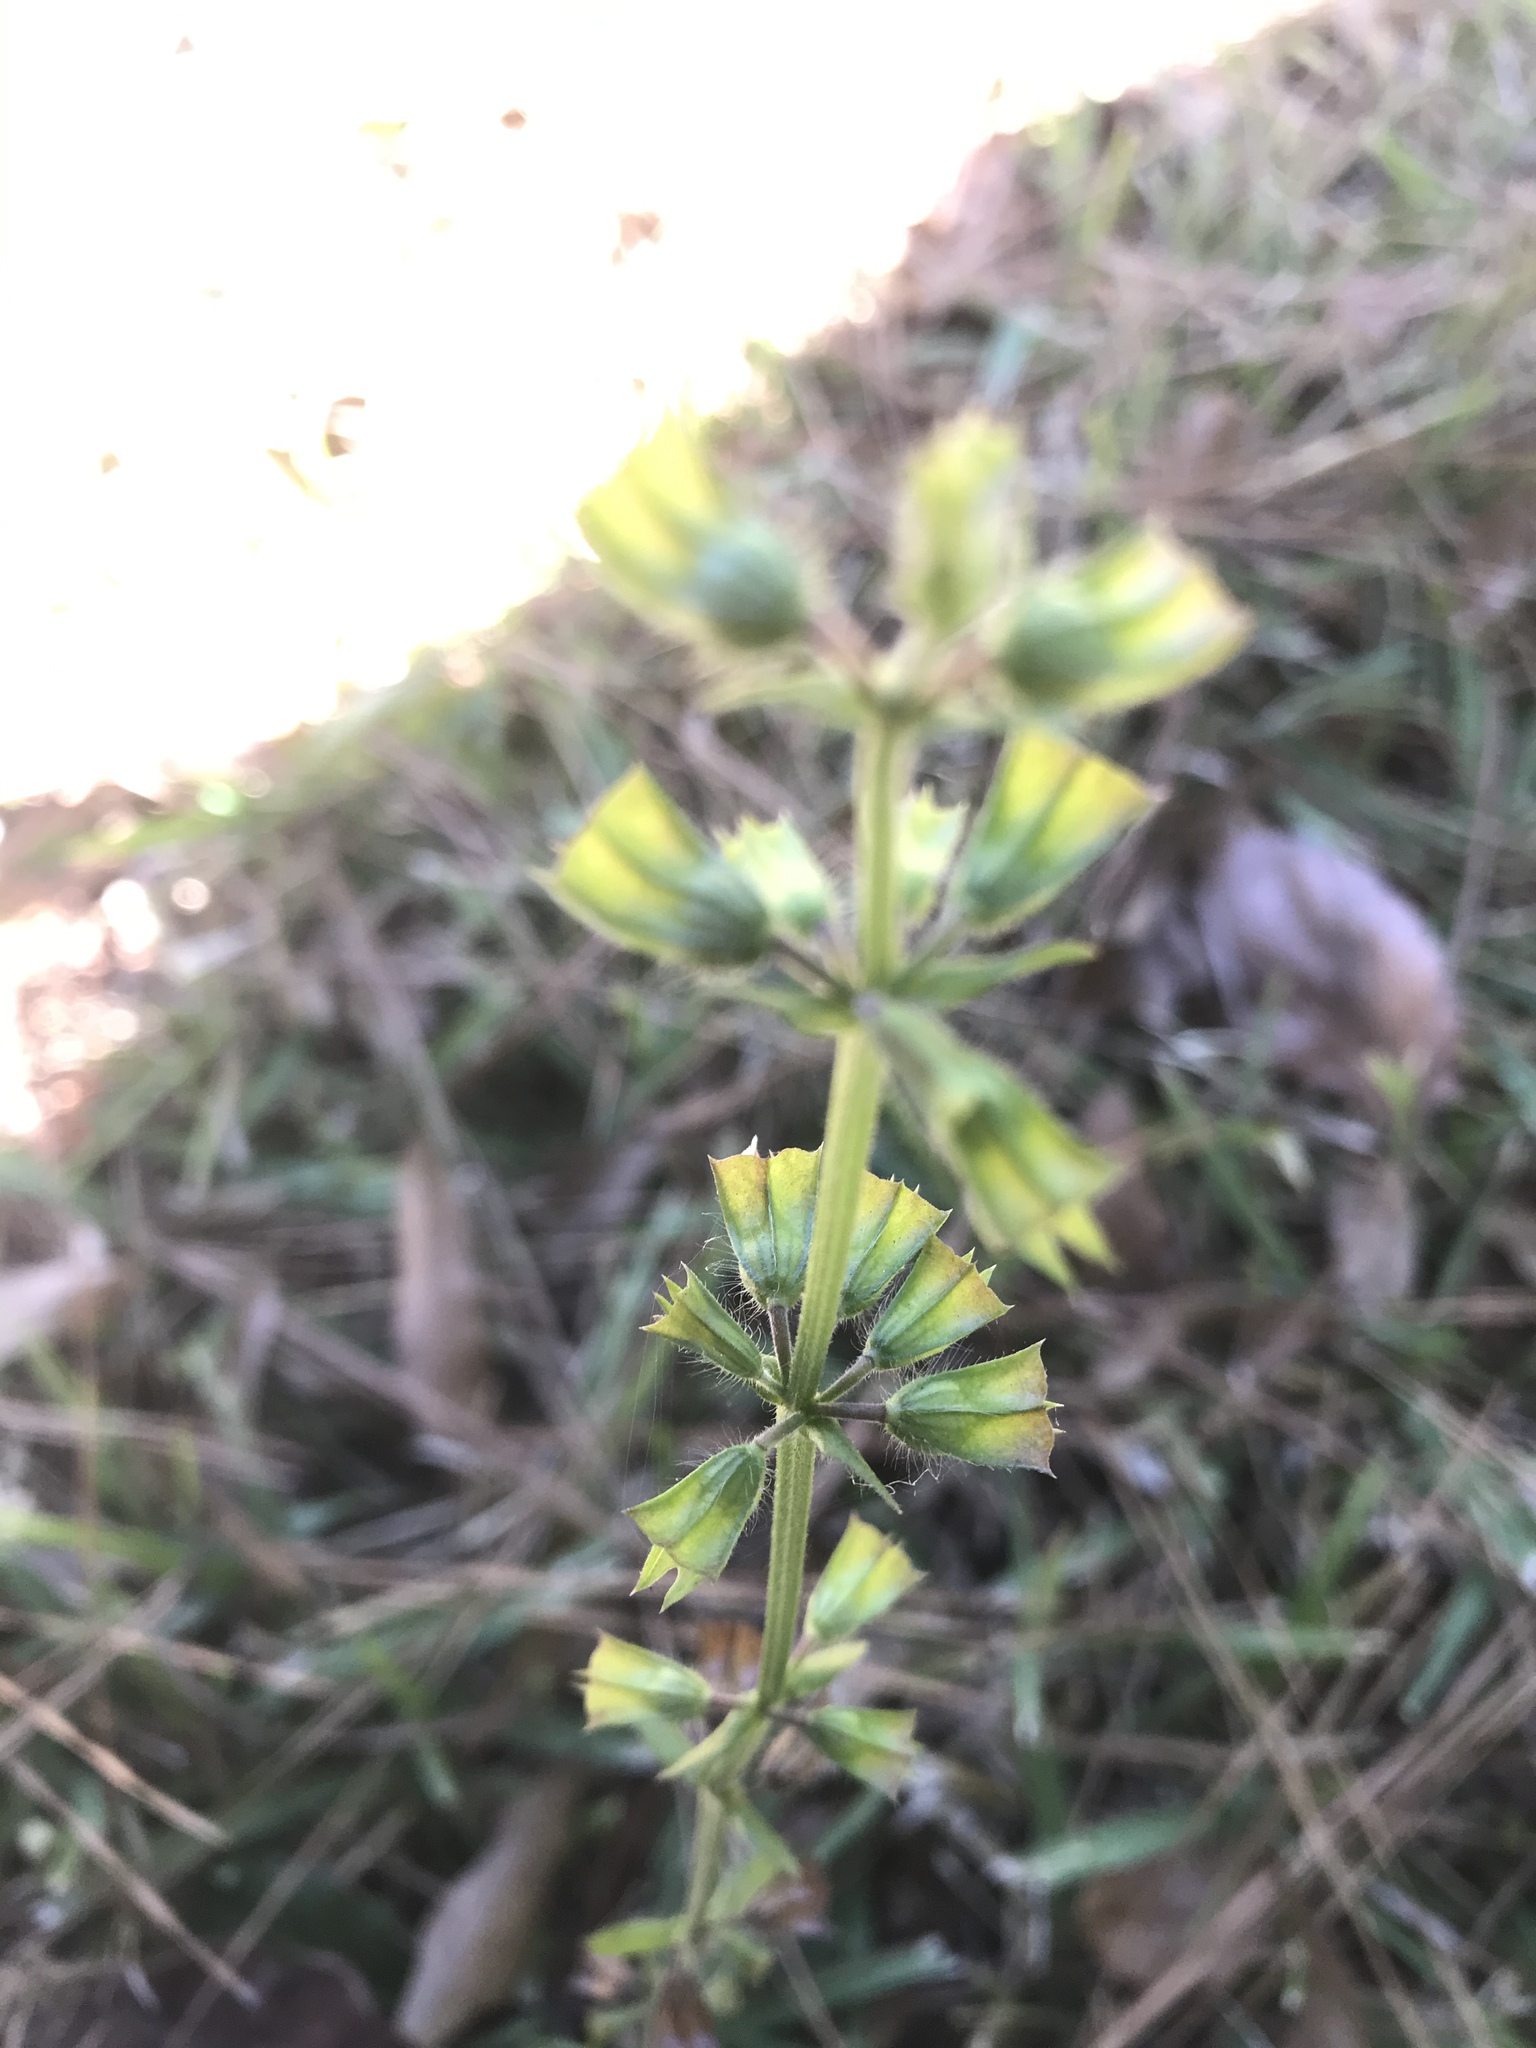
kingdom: Plantae
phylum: Tracheophyta
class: Magnoliopsida
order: Lamiales
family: Lamiaceae
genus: Salvia
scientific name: Salvia lyrata
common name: Cancerweed
